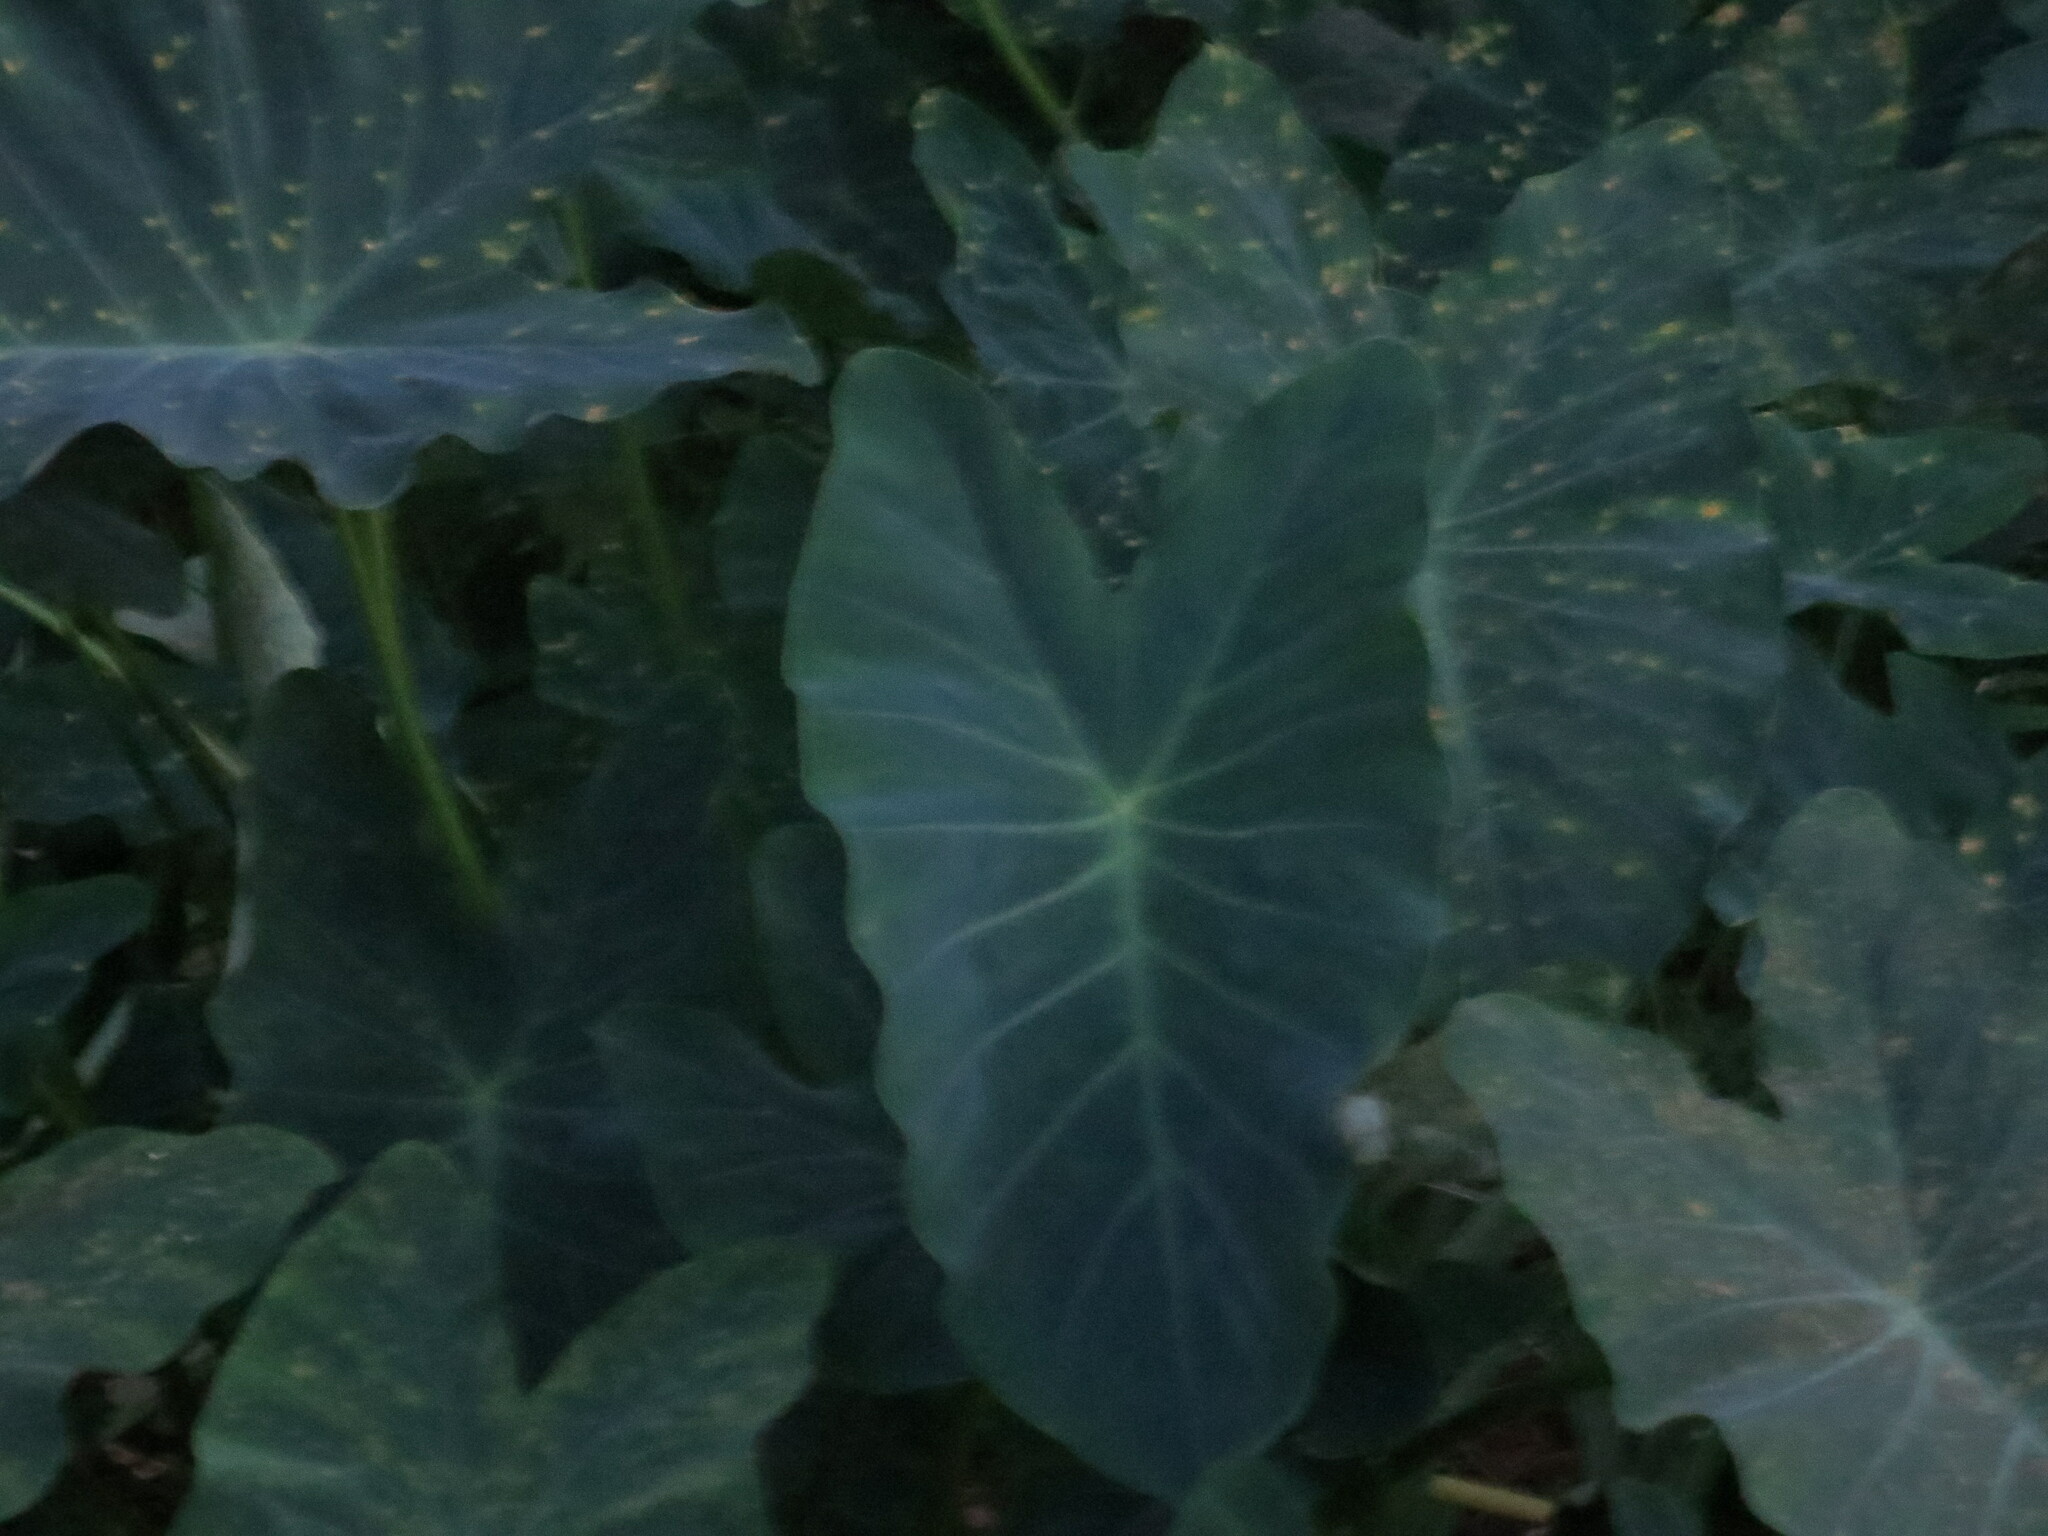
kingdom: Plantae
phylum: Tracheophyta
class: Liliopsida
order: Alismatales
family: Araceae
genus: Colocasia
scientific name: Colocasia esculenta
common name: Taro
